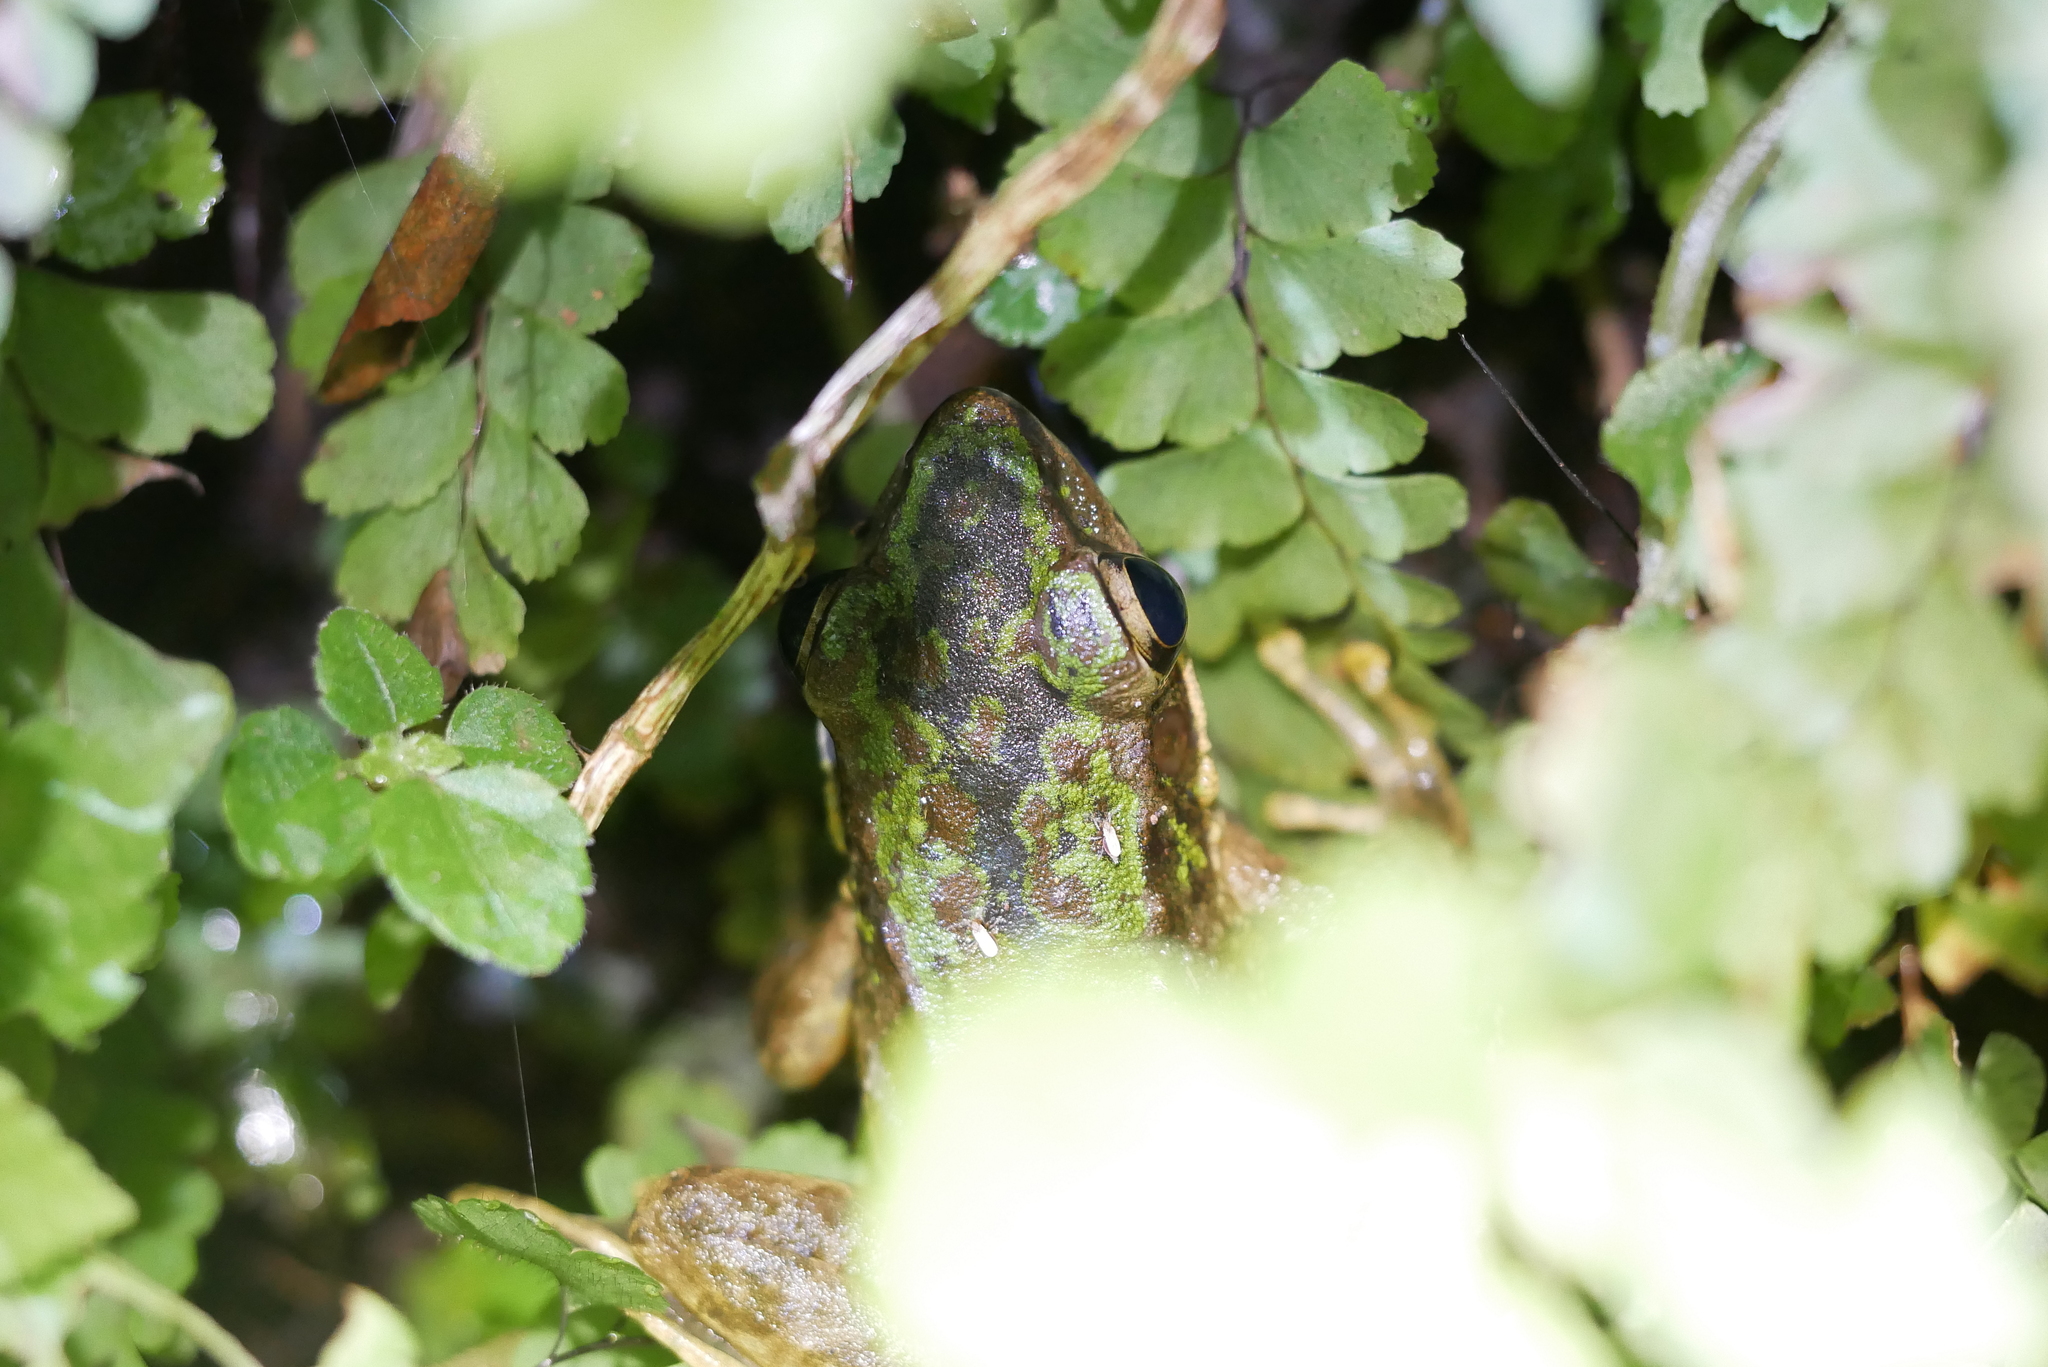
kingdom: Animalia
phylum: Chordata
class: Amphibia
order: Anura
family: Ranidae
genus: Odorrana
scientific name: Odorrana swinhoana
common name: Bangkimtsing frog
